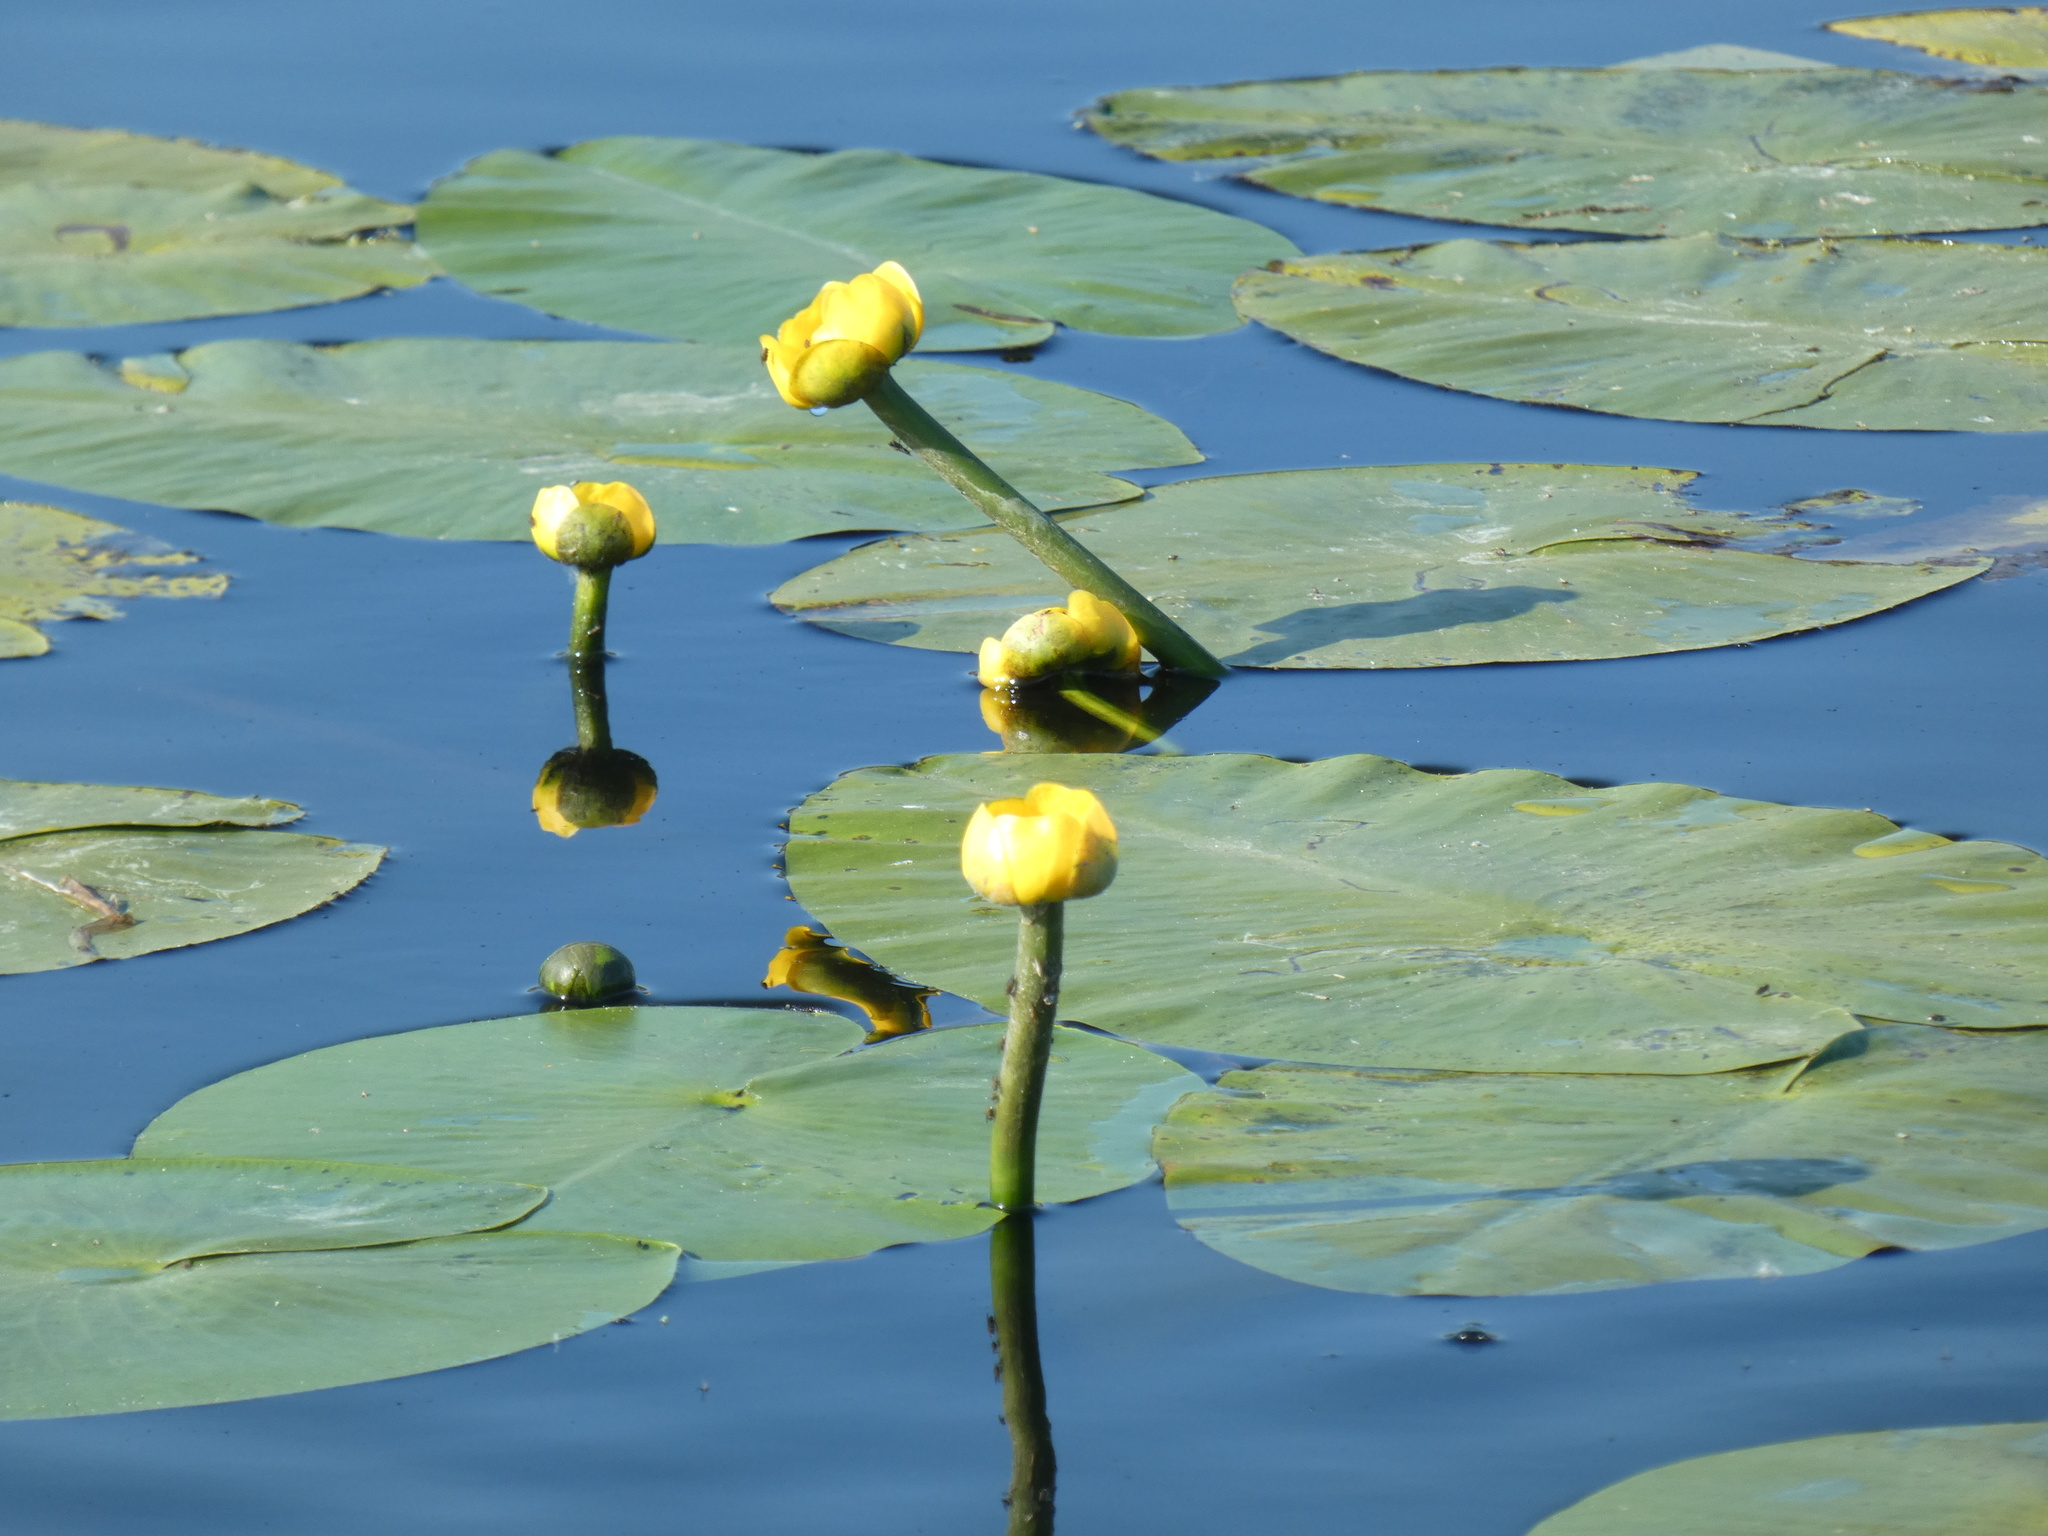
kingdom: Plantae
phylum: Tracheophyta
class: Magnoliopsida
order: Nymphaeales
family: Nymphaeaceae
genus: Nuphar
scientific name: Nuphar lutea
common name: Yellow water-lily
